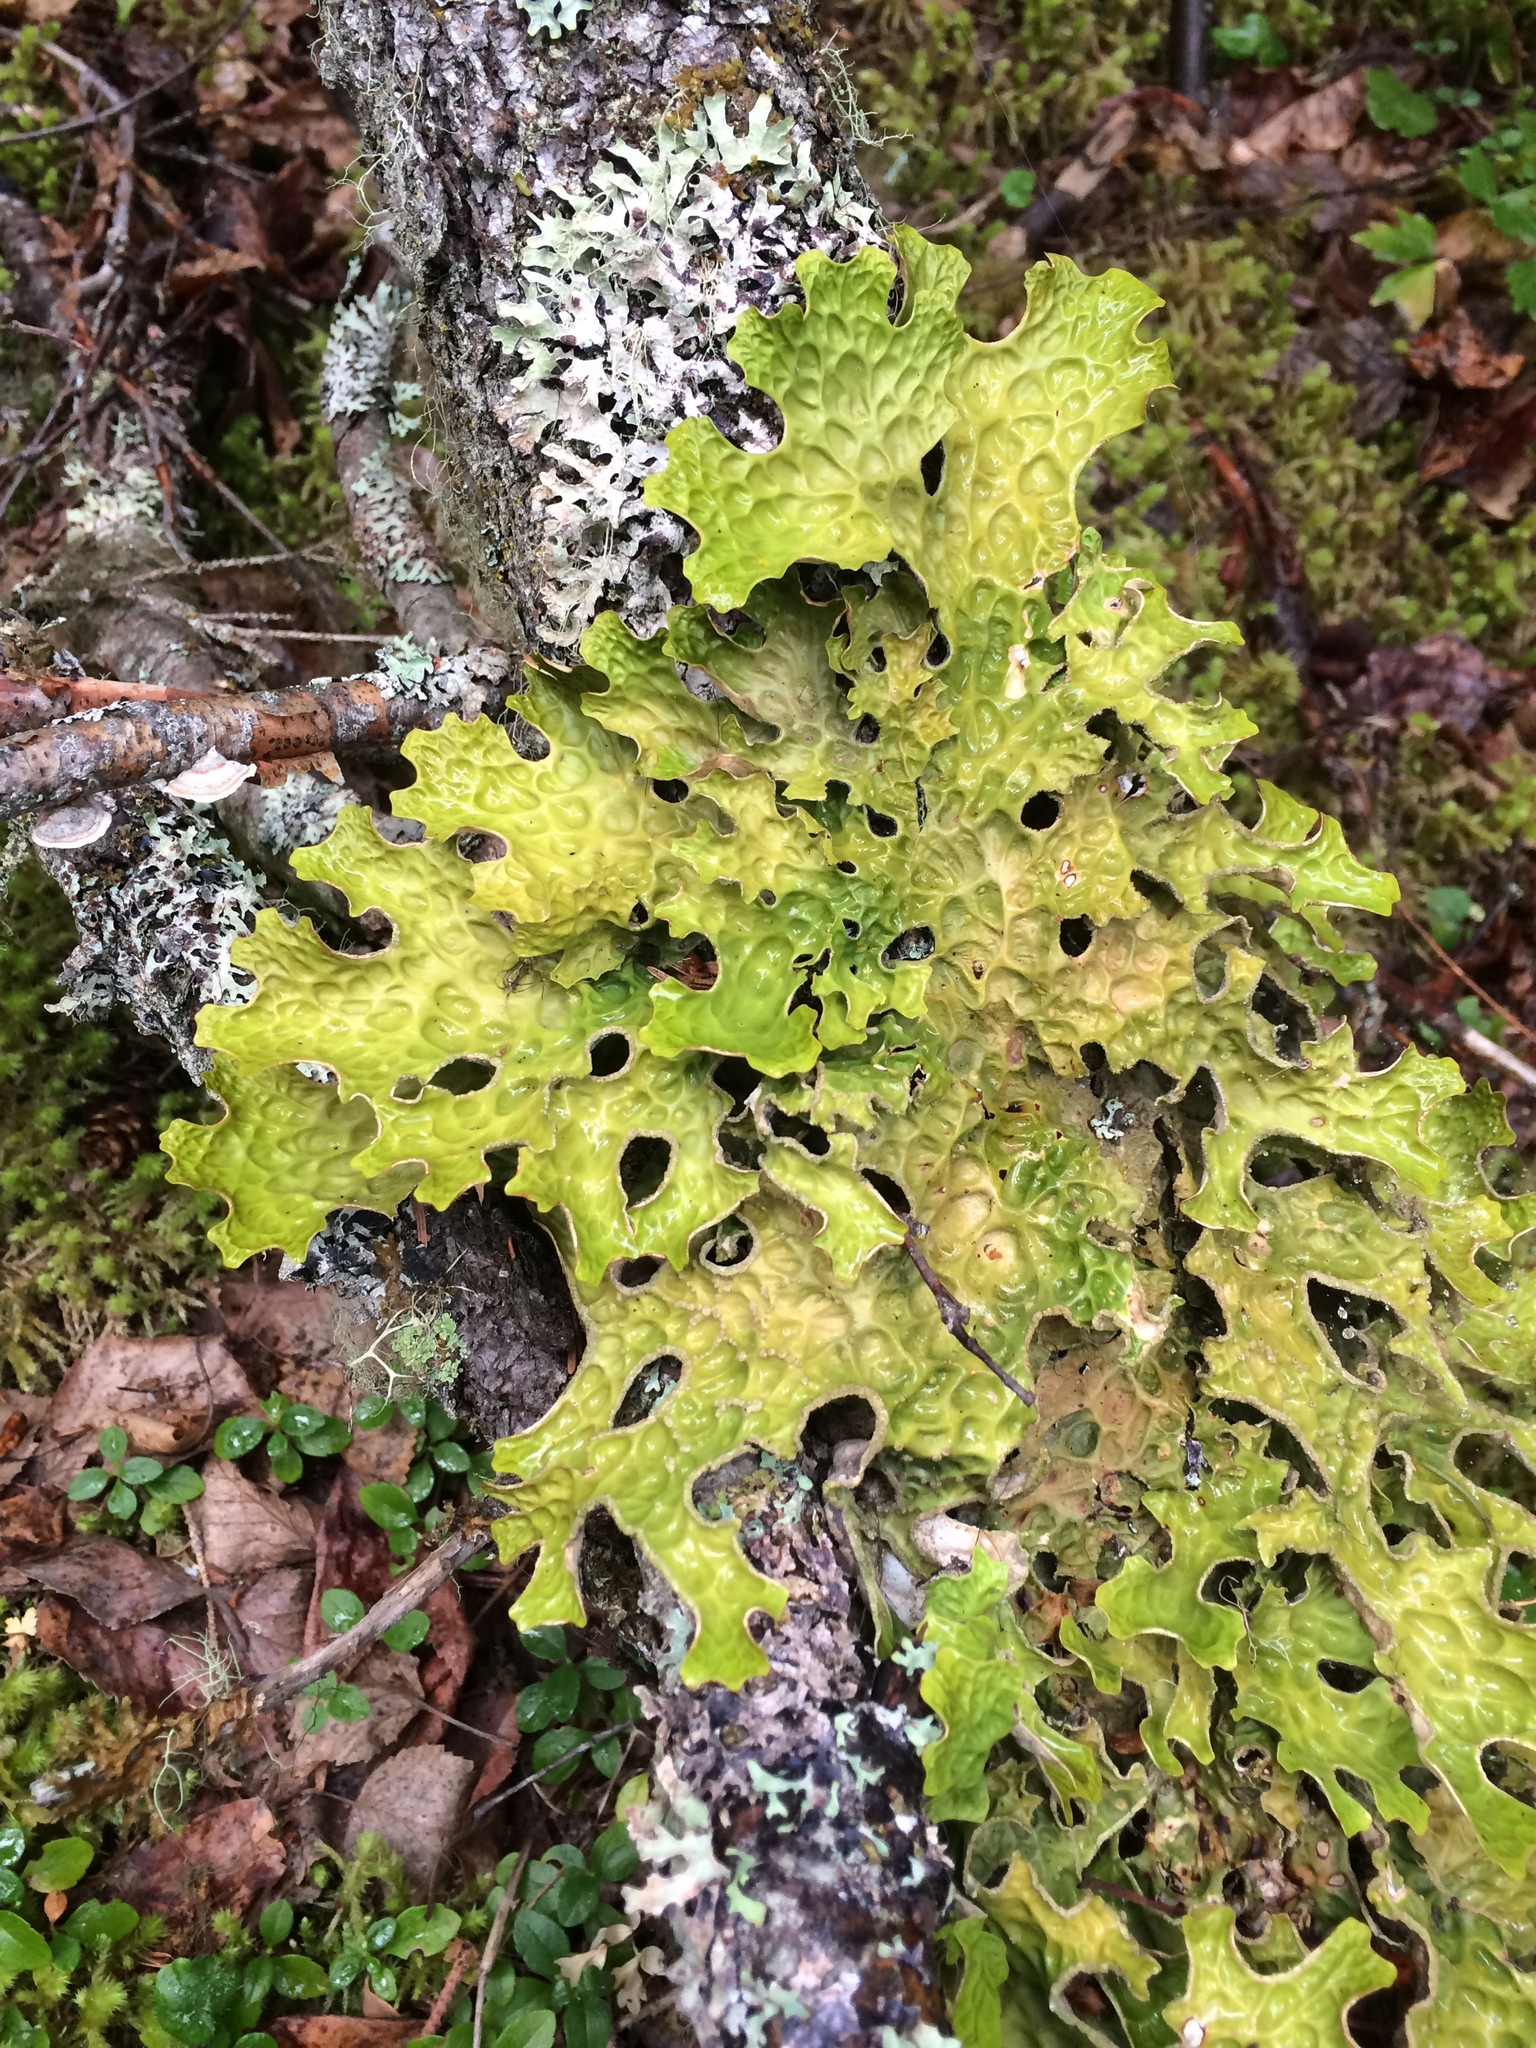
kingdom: Fungi
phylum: Ascomycota
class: Lecanoromycetes
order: Peltigerales
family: Lobariaceae
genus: Lobaria
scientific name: Lobaria pulmonaria
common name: Lungwort
